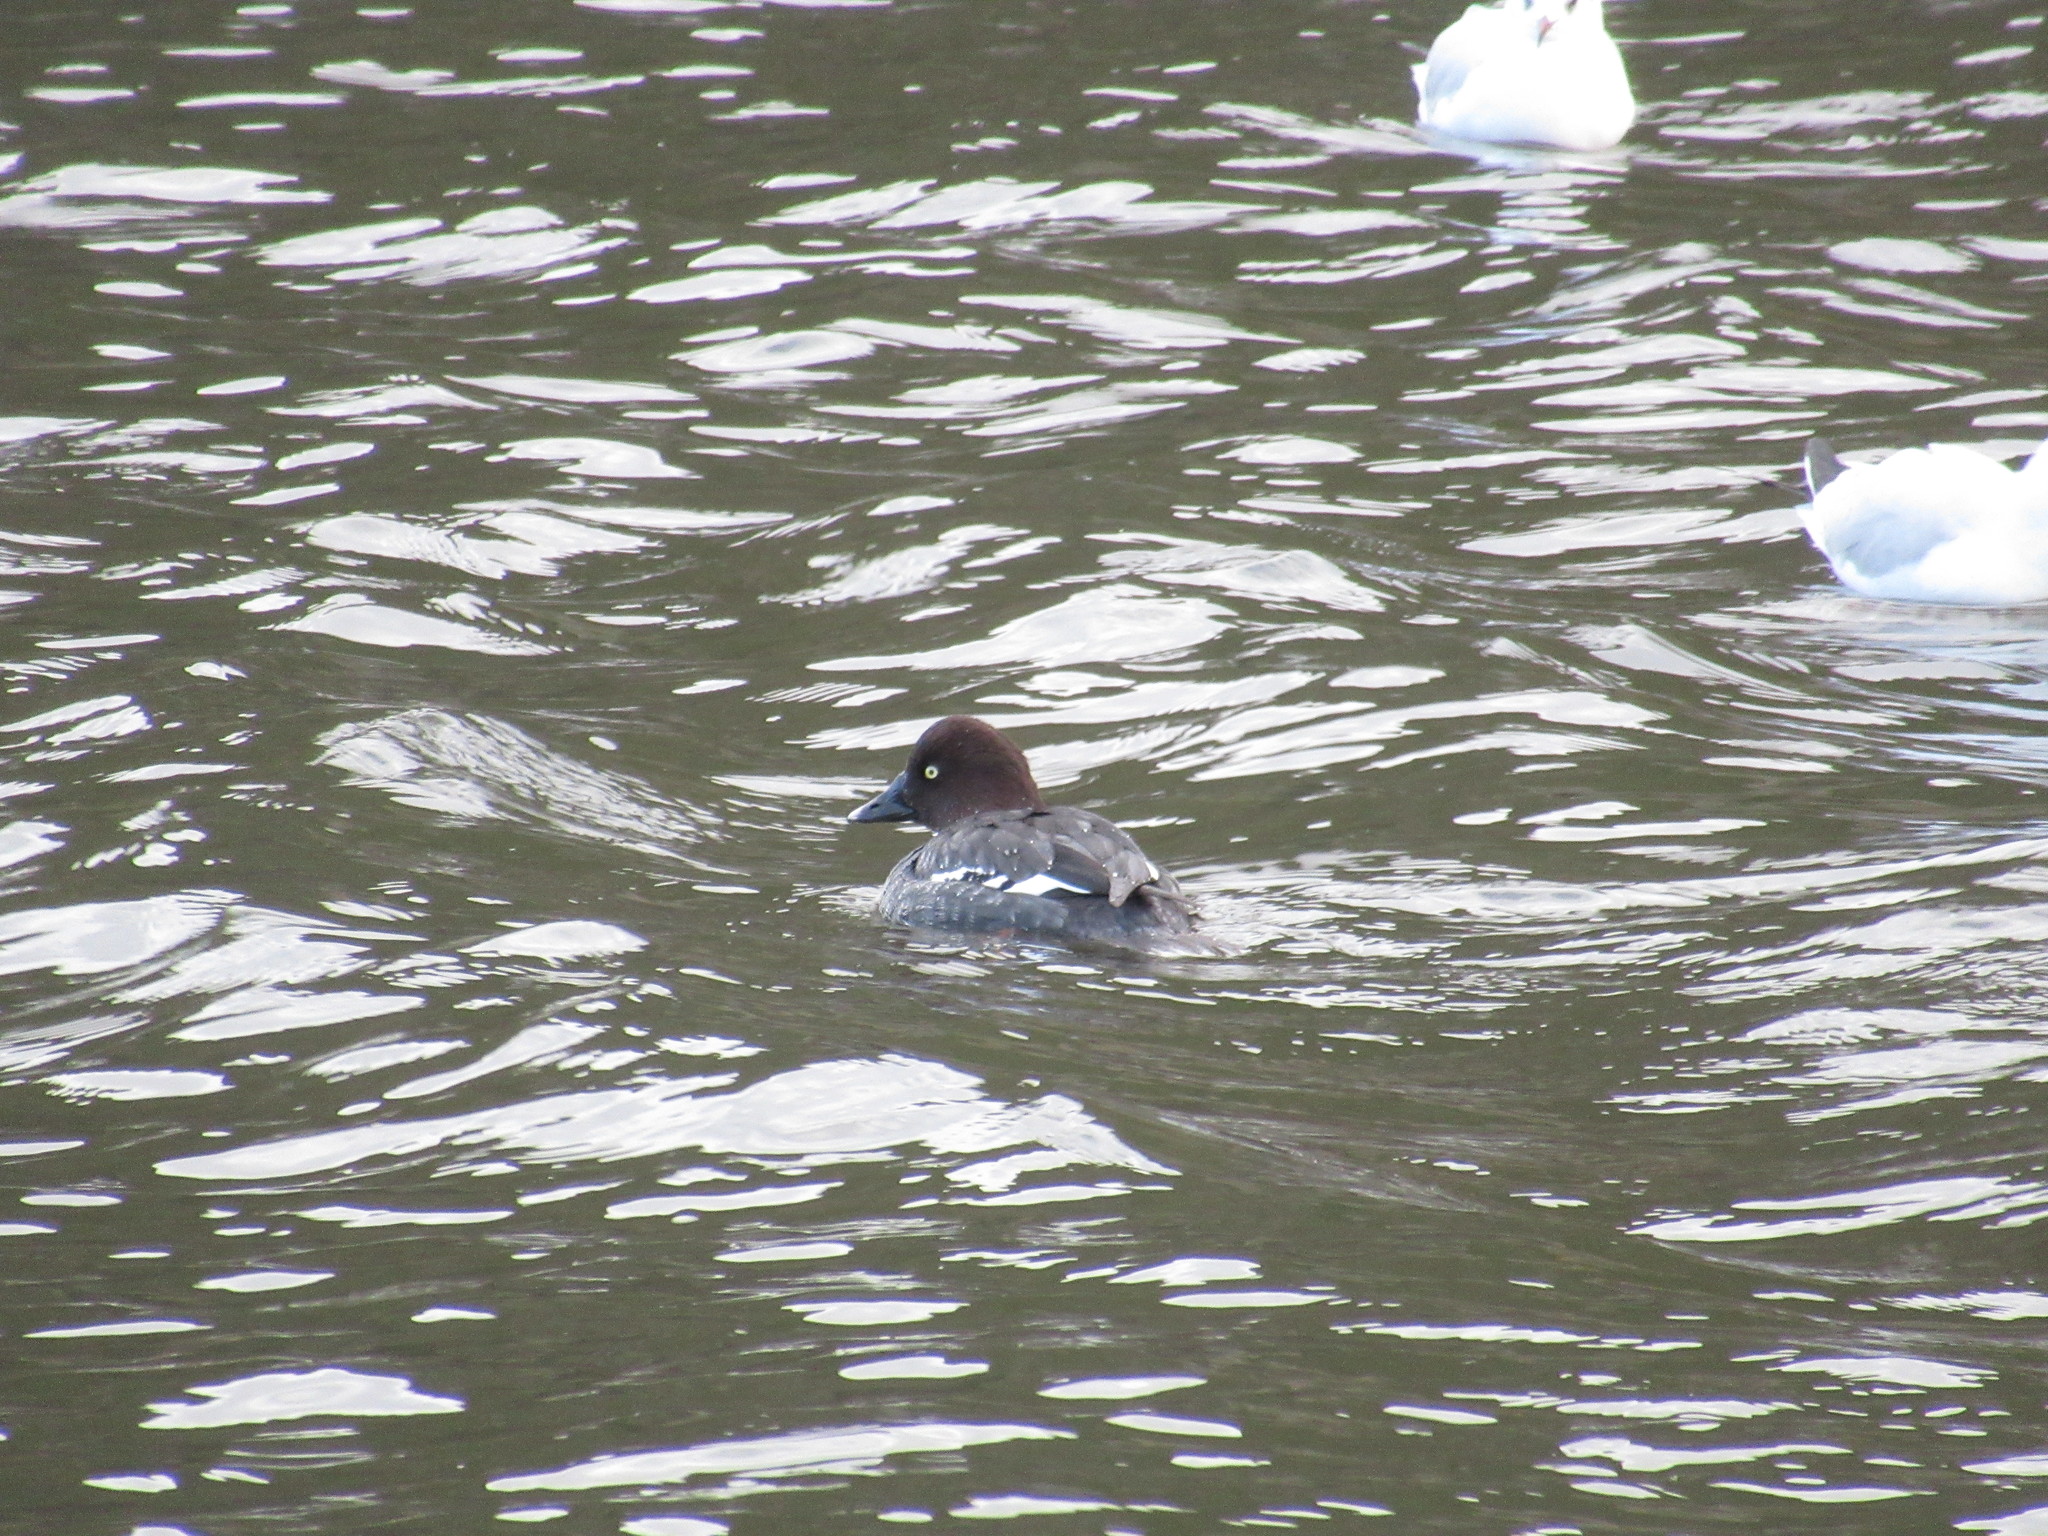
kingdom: Animalia
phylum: Chordata
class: Aves
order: Anseriformes
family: Anatidae
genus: Bucephala
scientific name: Bucephala clangula
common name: Common goldeneye
